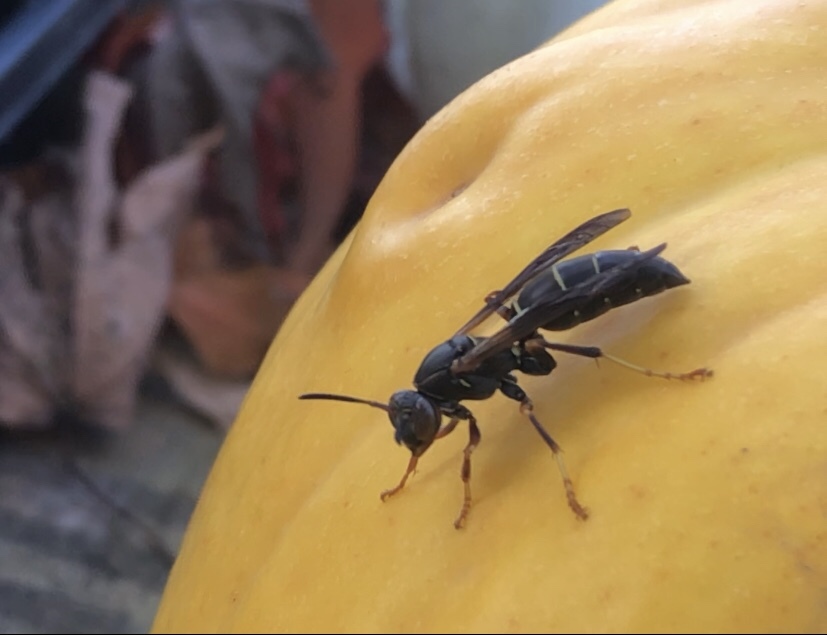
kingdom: Animalia
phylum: Arthropoda
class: Insecta
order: Hymenoptera
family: Eumenidae
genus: Polistes
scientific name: Polistes fuscatus
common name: Dark paper wasp
